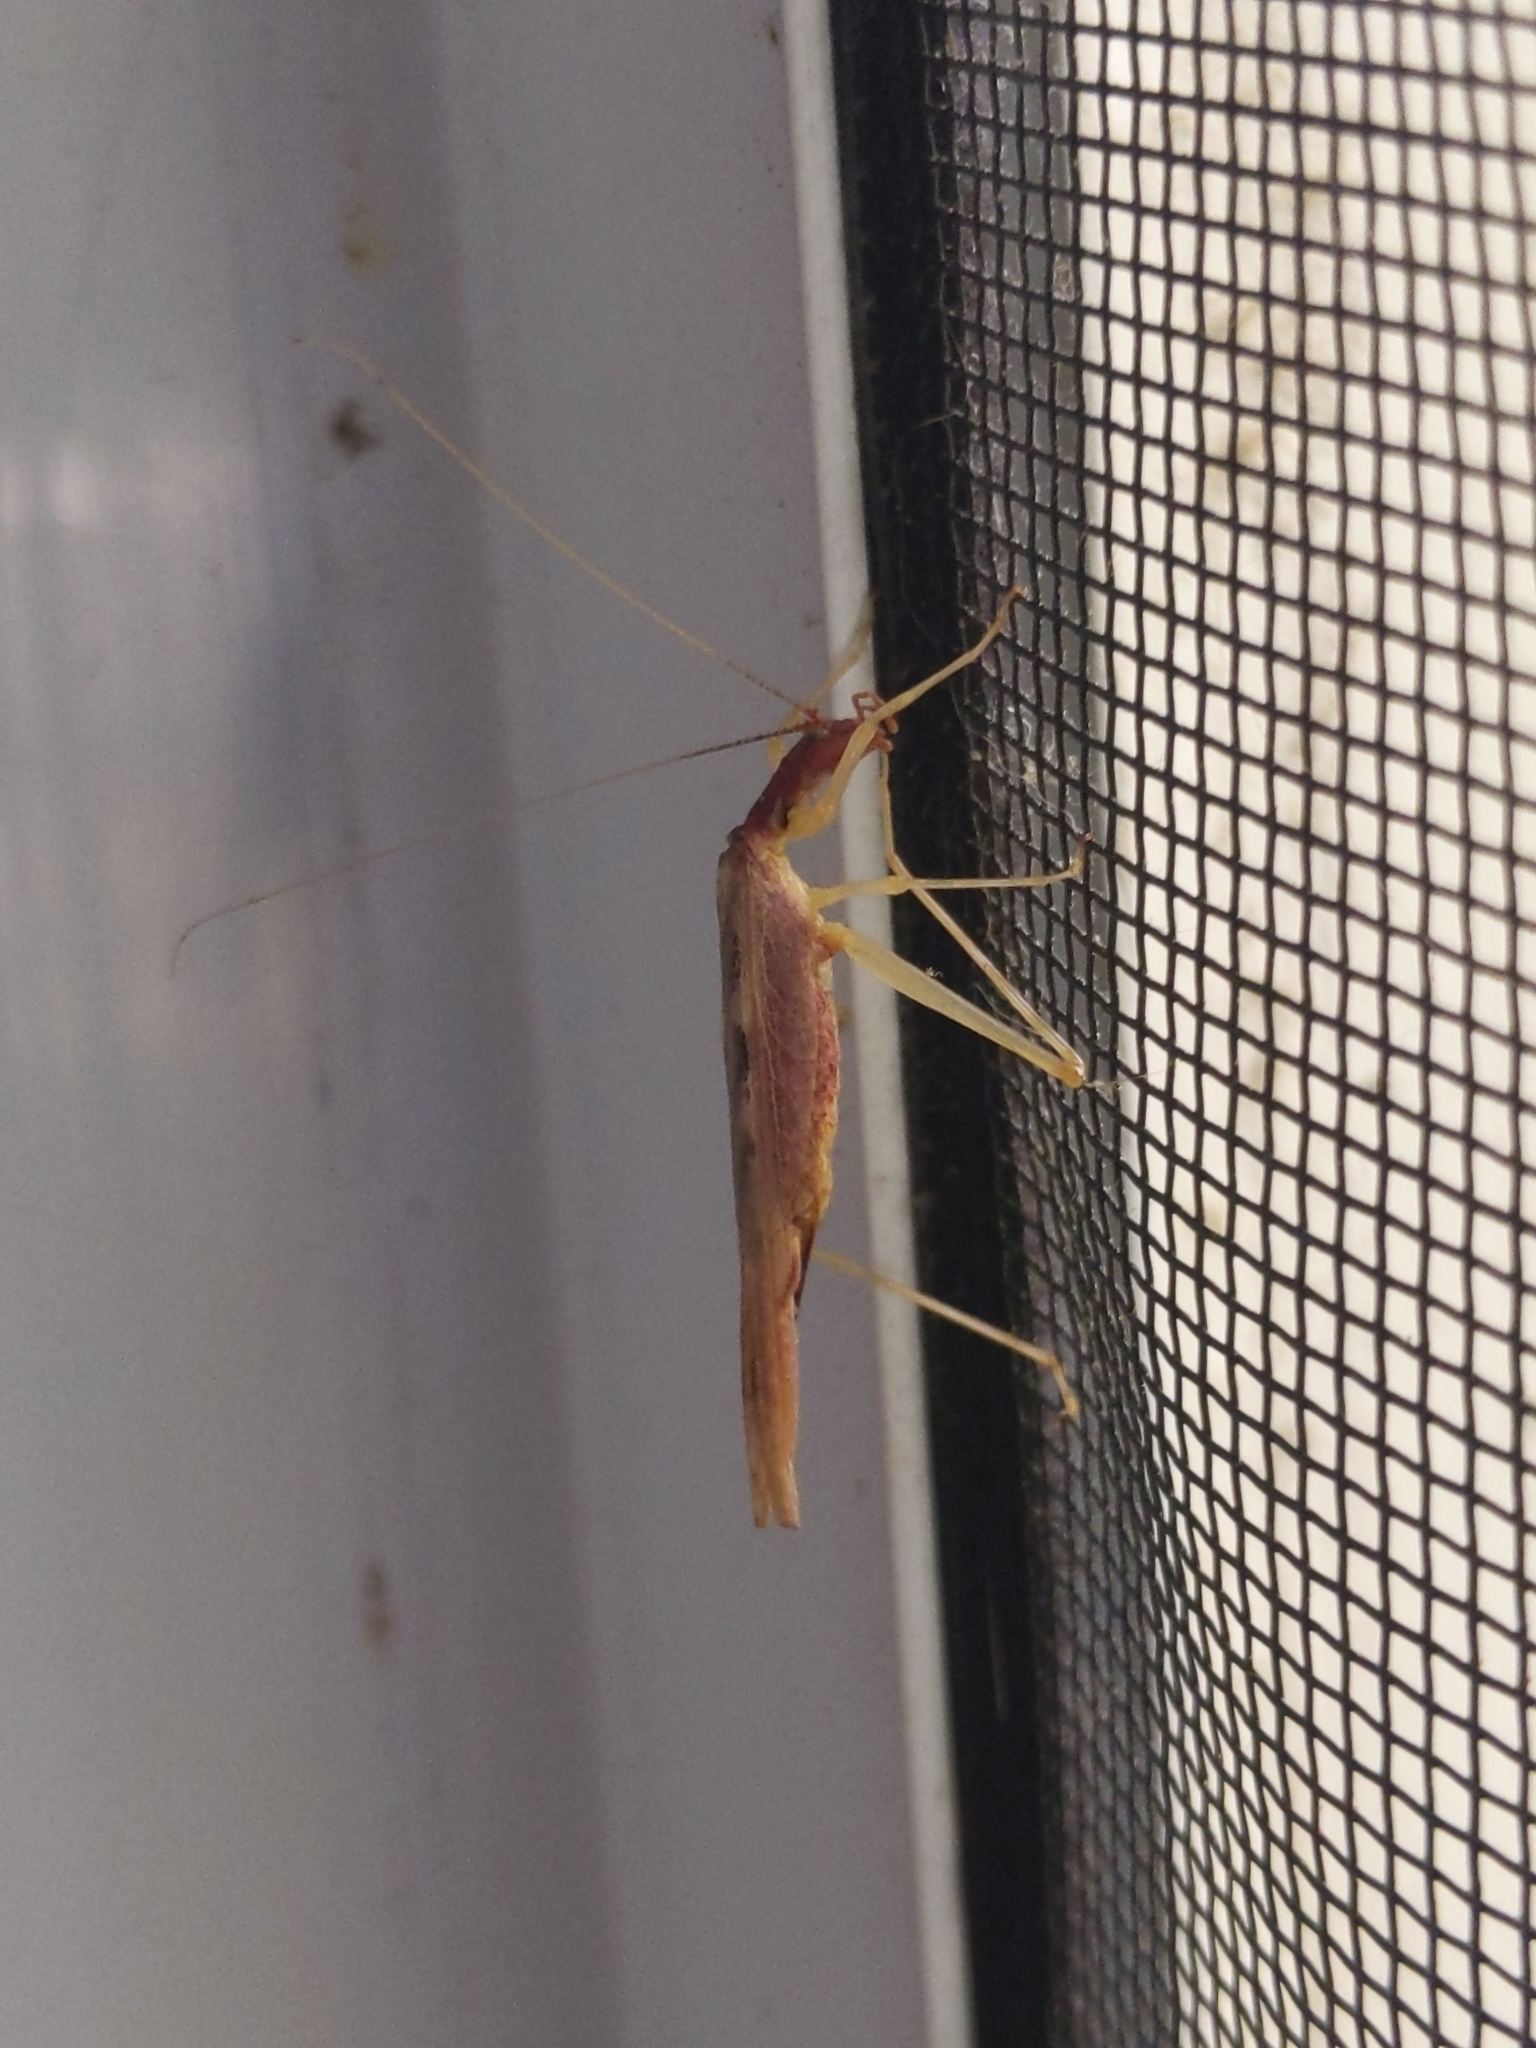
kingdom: Animalia
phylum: Arthropoda
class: Insecta
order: Orthoptera
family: Gryllidae
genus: Neoxabea
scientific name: Neoxabea bipunctata
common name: Two-spotted tree cricket
